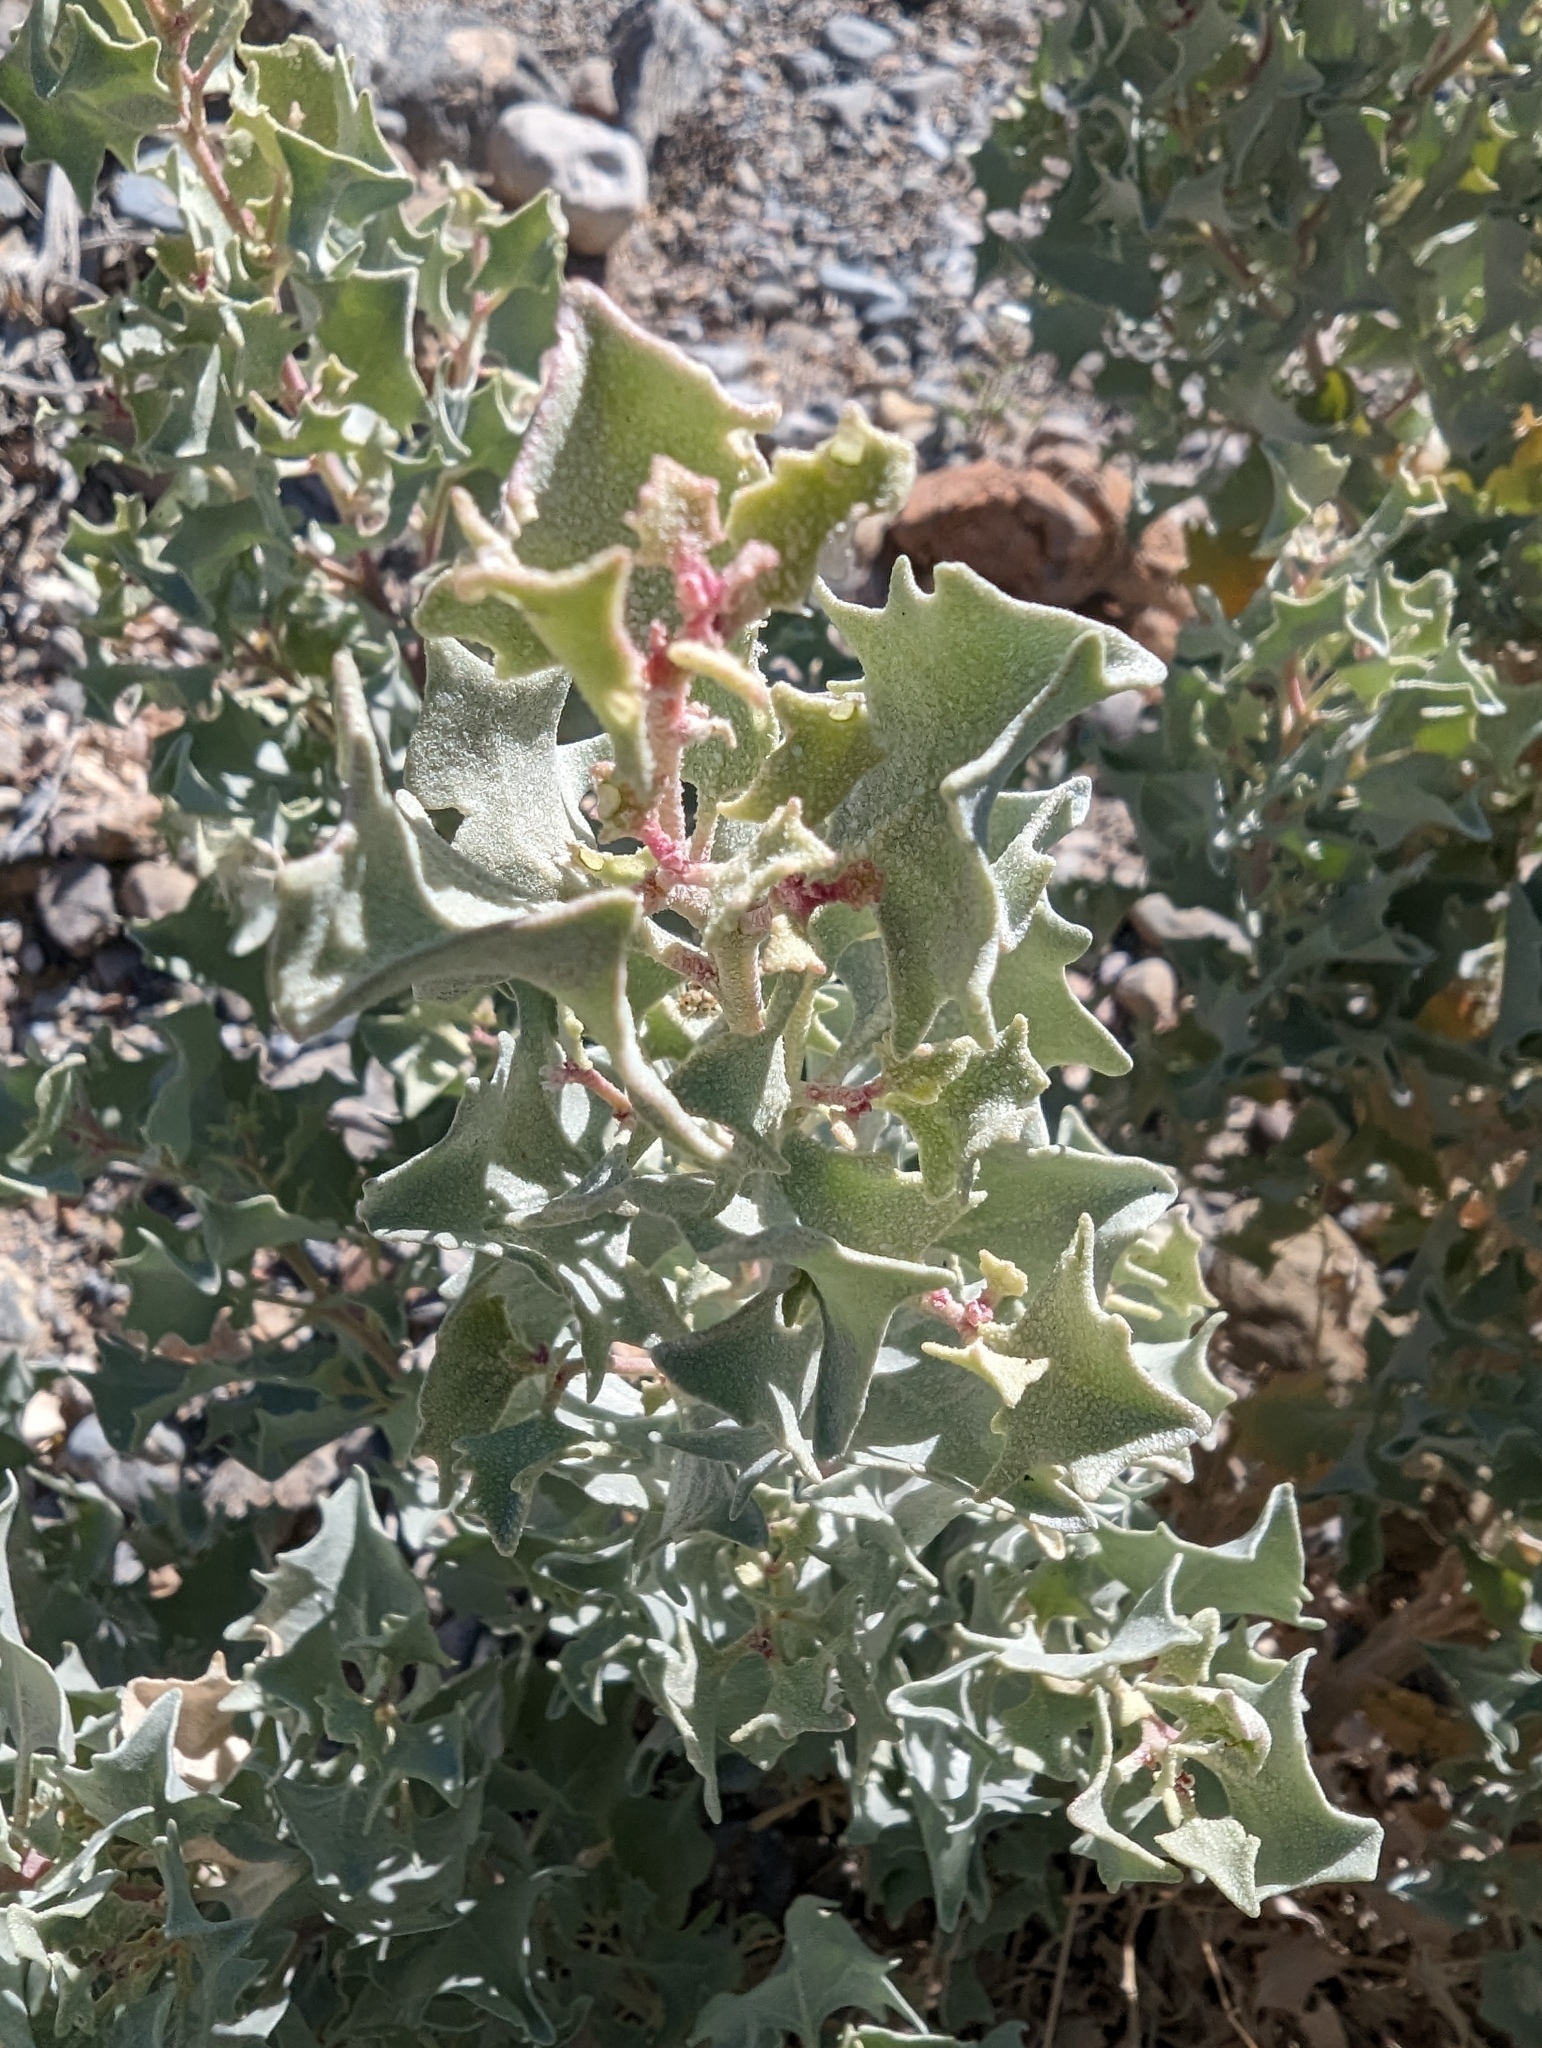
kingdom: Plantae
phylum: Tracheophyta
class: Magnoliopsida
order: Caryophyllales
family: Amaranthaceae
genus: Atriplex
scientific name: Atriplex hymenelytra
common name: Desert-holly
